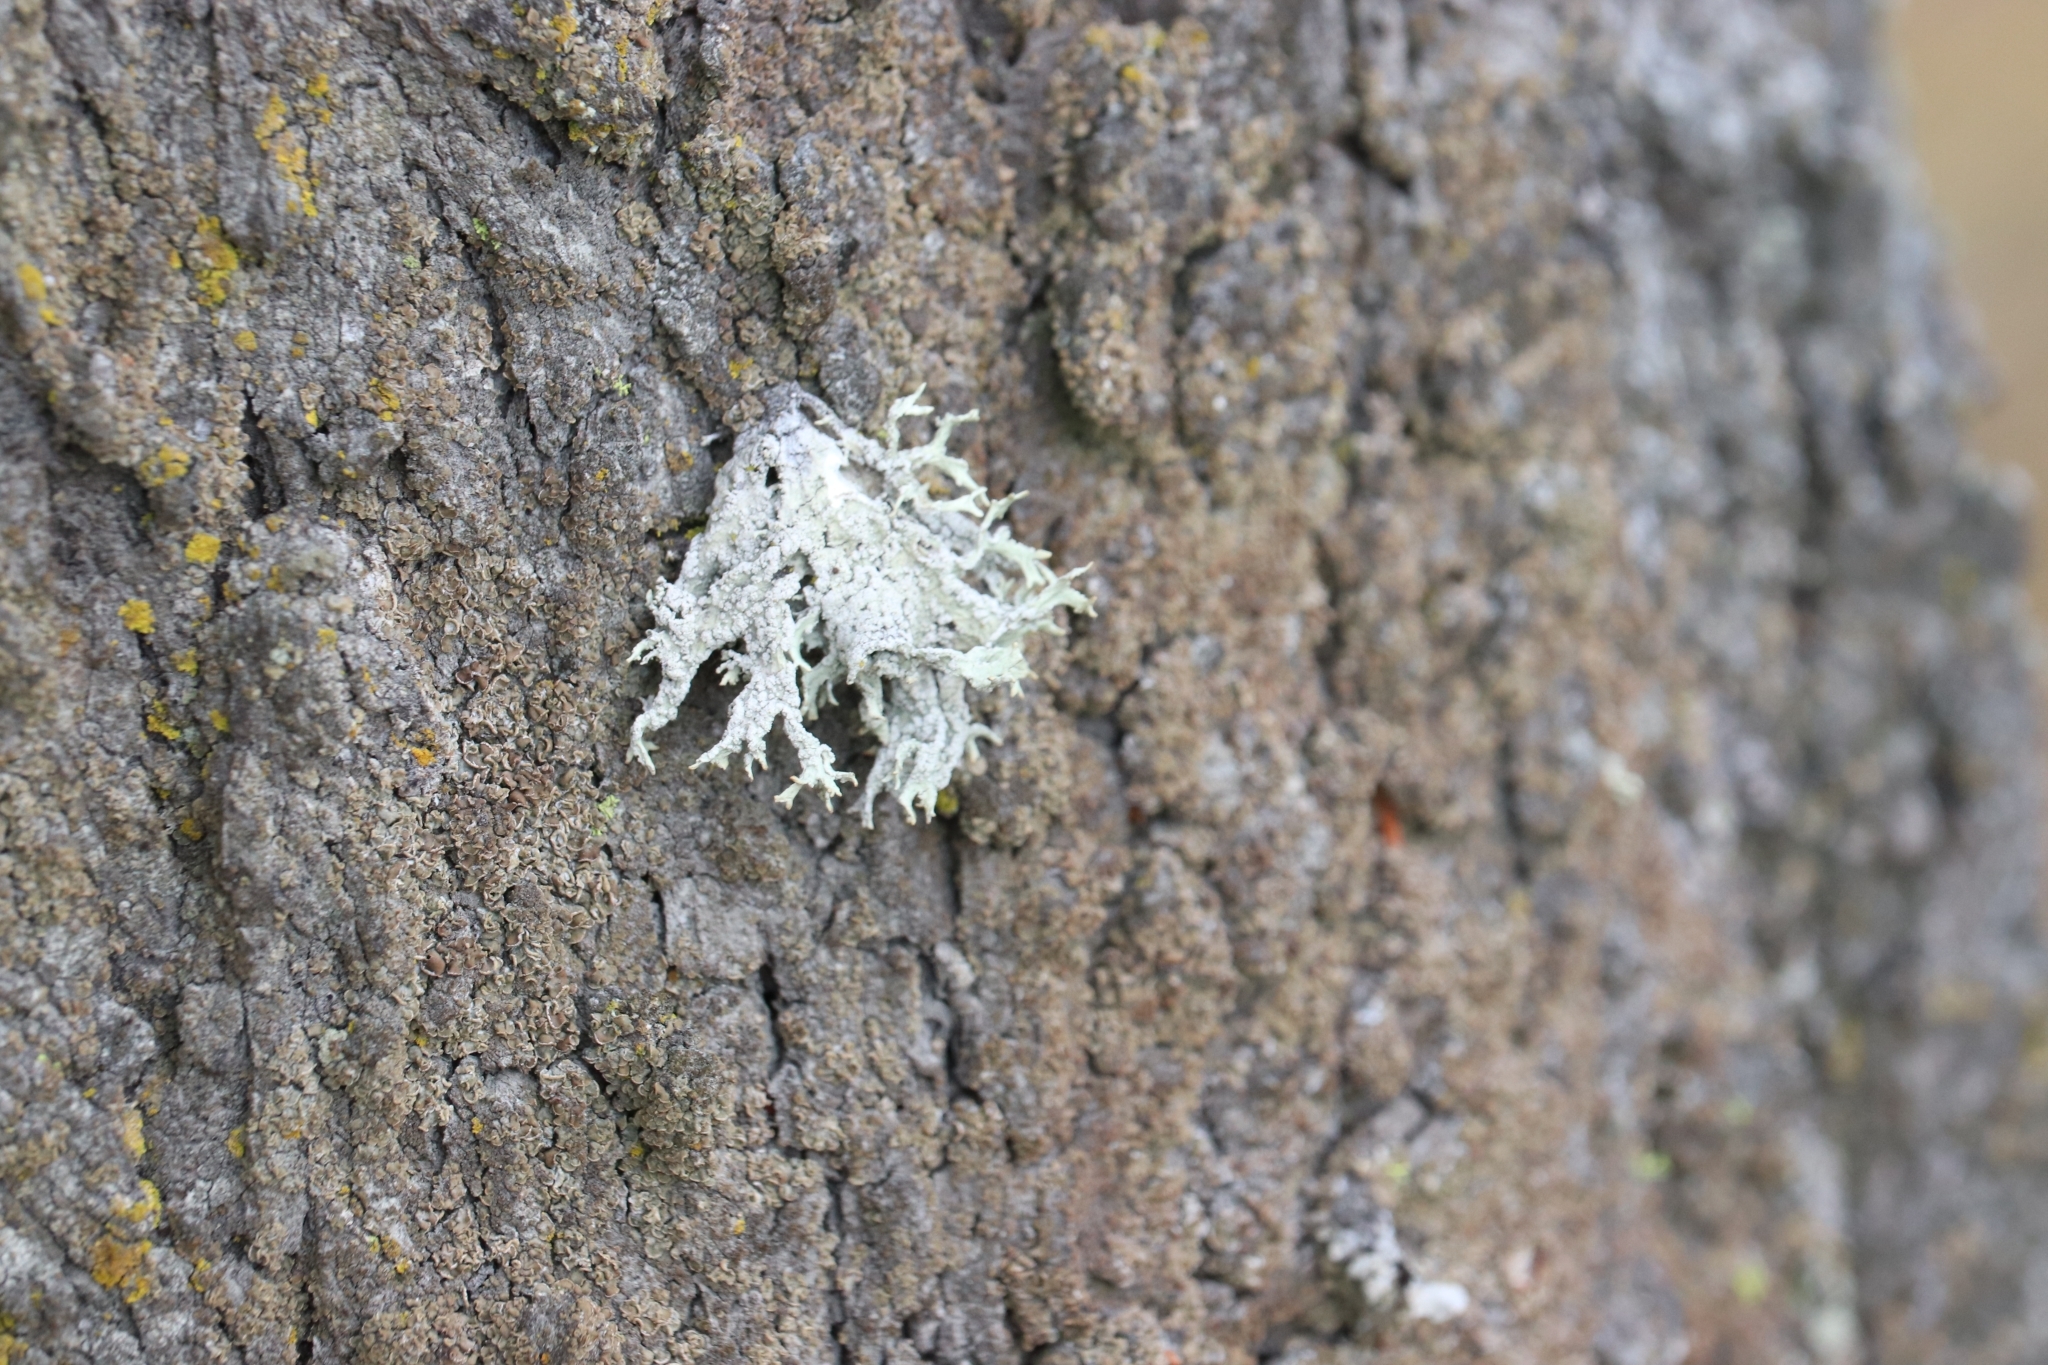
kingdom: Fungi
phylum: Ascomycota
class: Lecanoromycetes
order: Lecanorales
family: Parmeliaceae
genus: Evernia
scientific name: Evernia prunastri
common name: Oak moss
